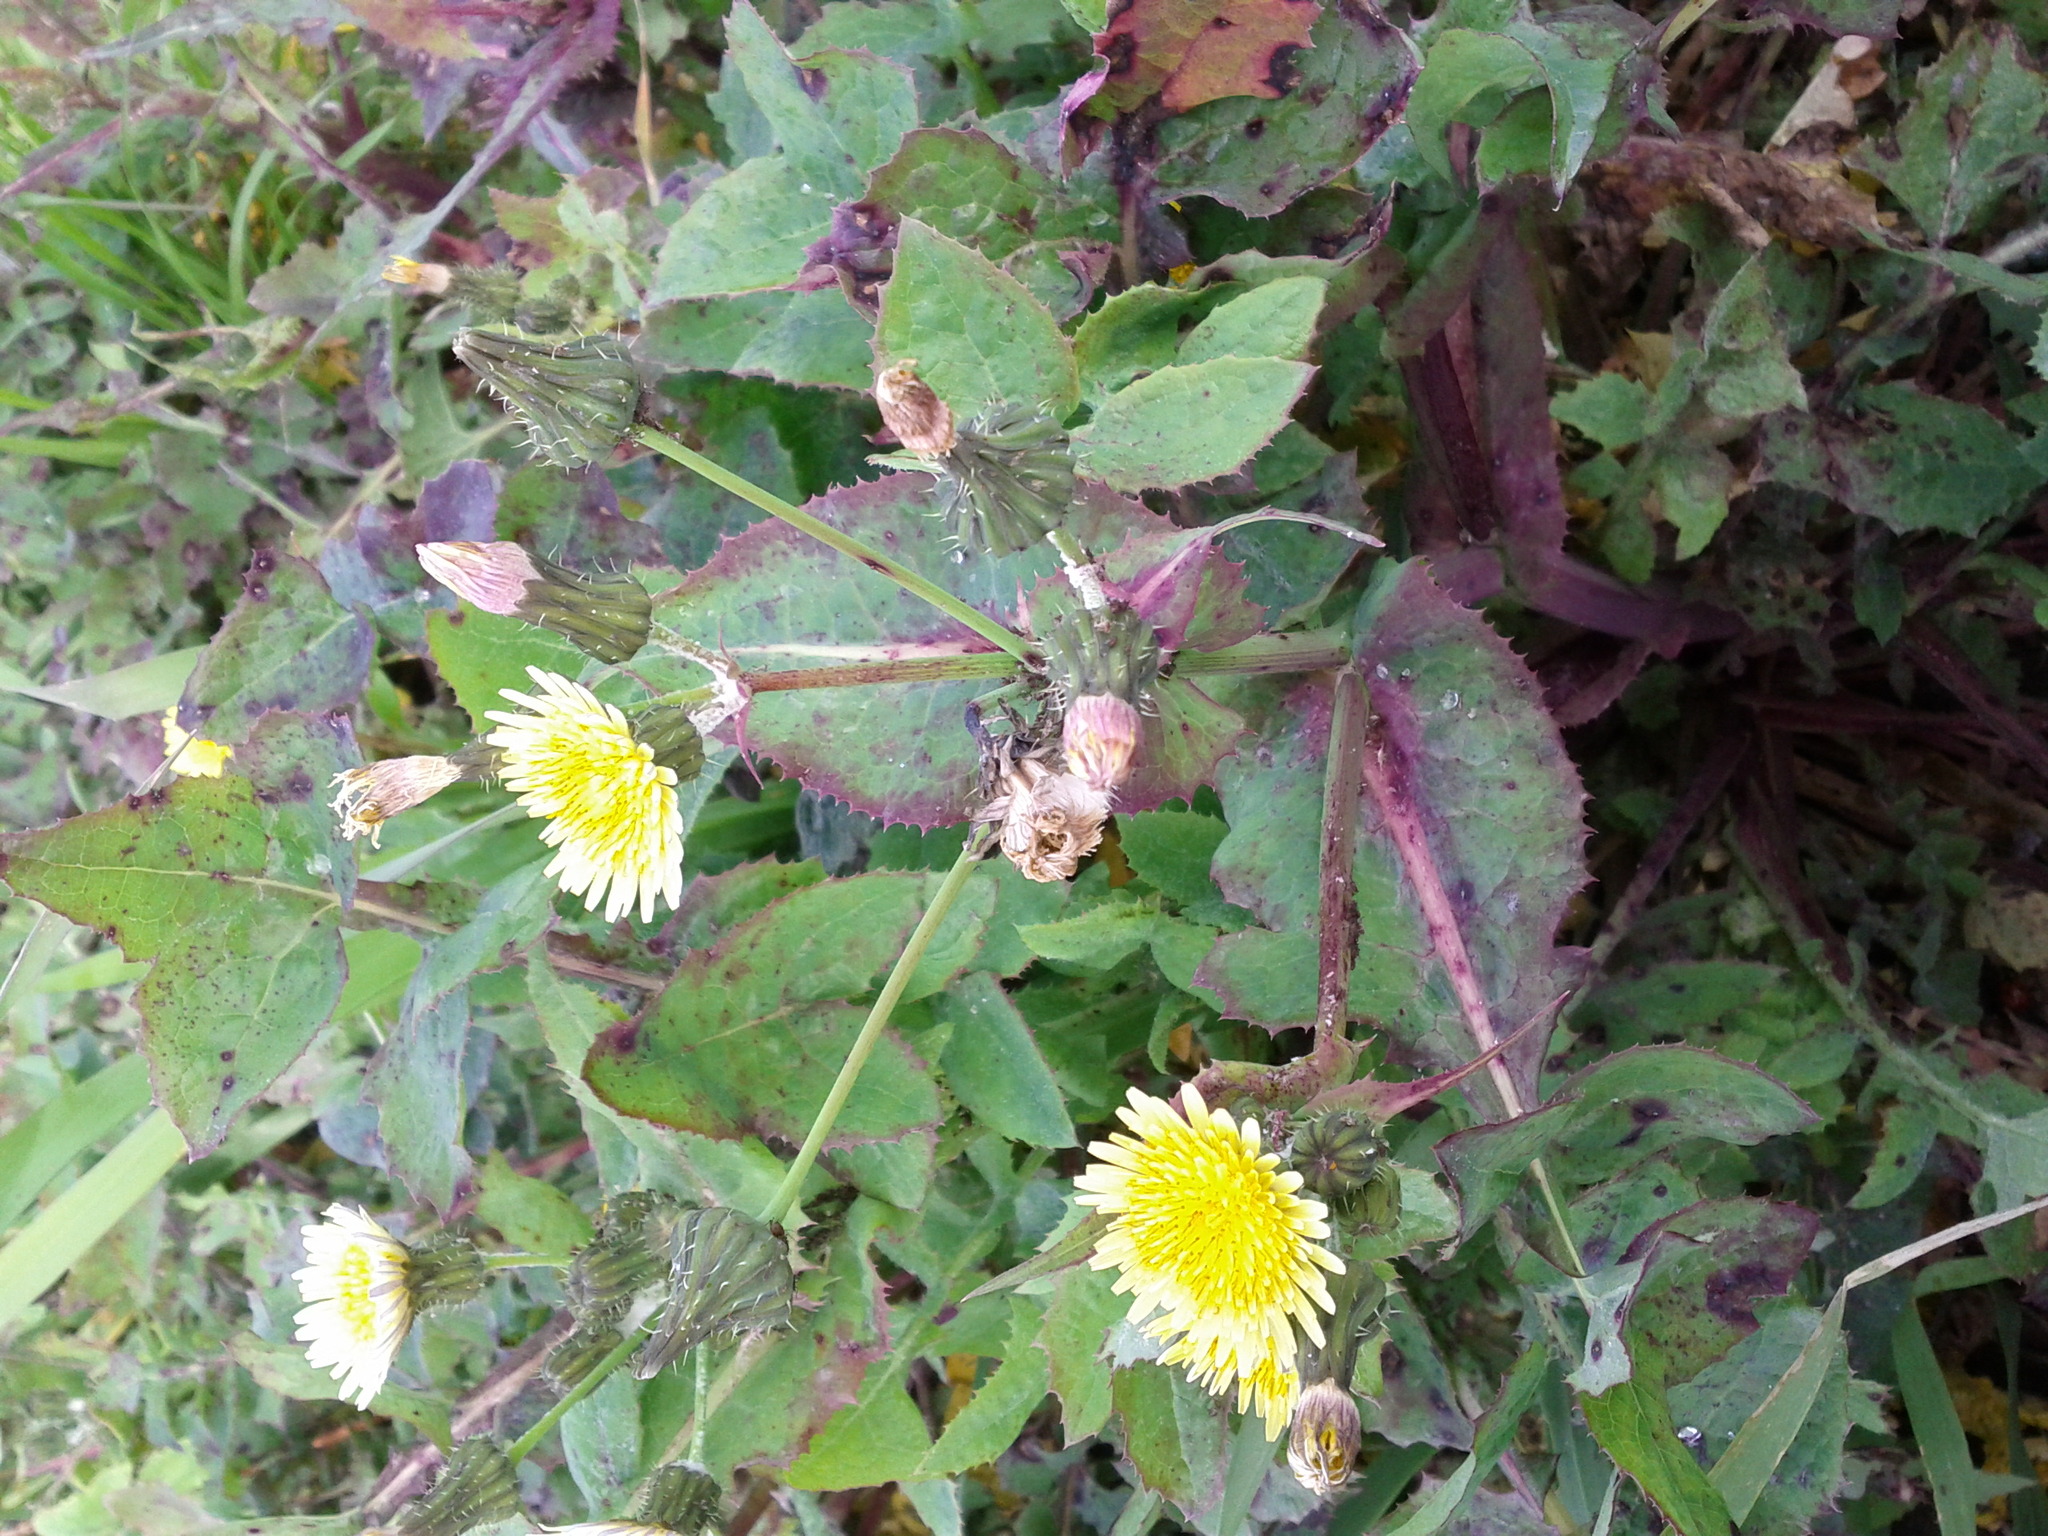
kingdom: Plantae
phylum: Tracheophyta
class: Magnoliopsida
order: Asterales
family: Asteraceae
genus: Sonchus
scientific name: Sonchus oleraceus
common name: Common sowthistle
